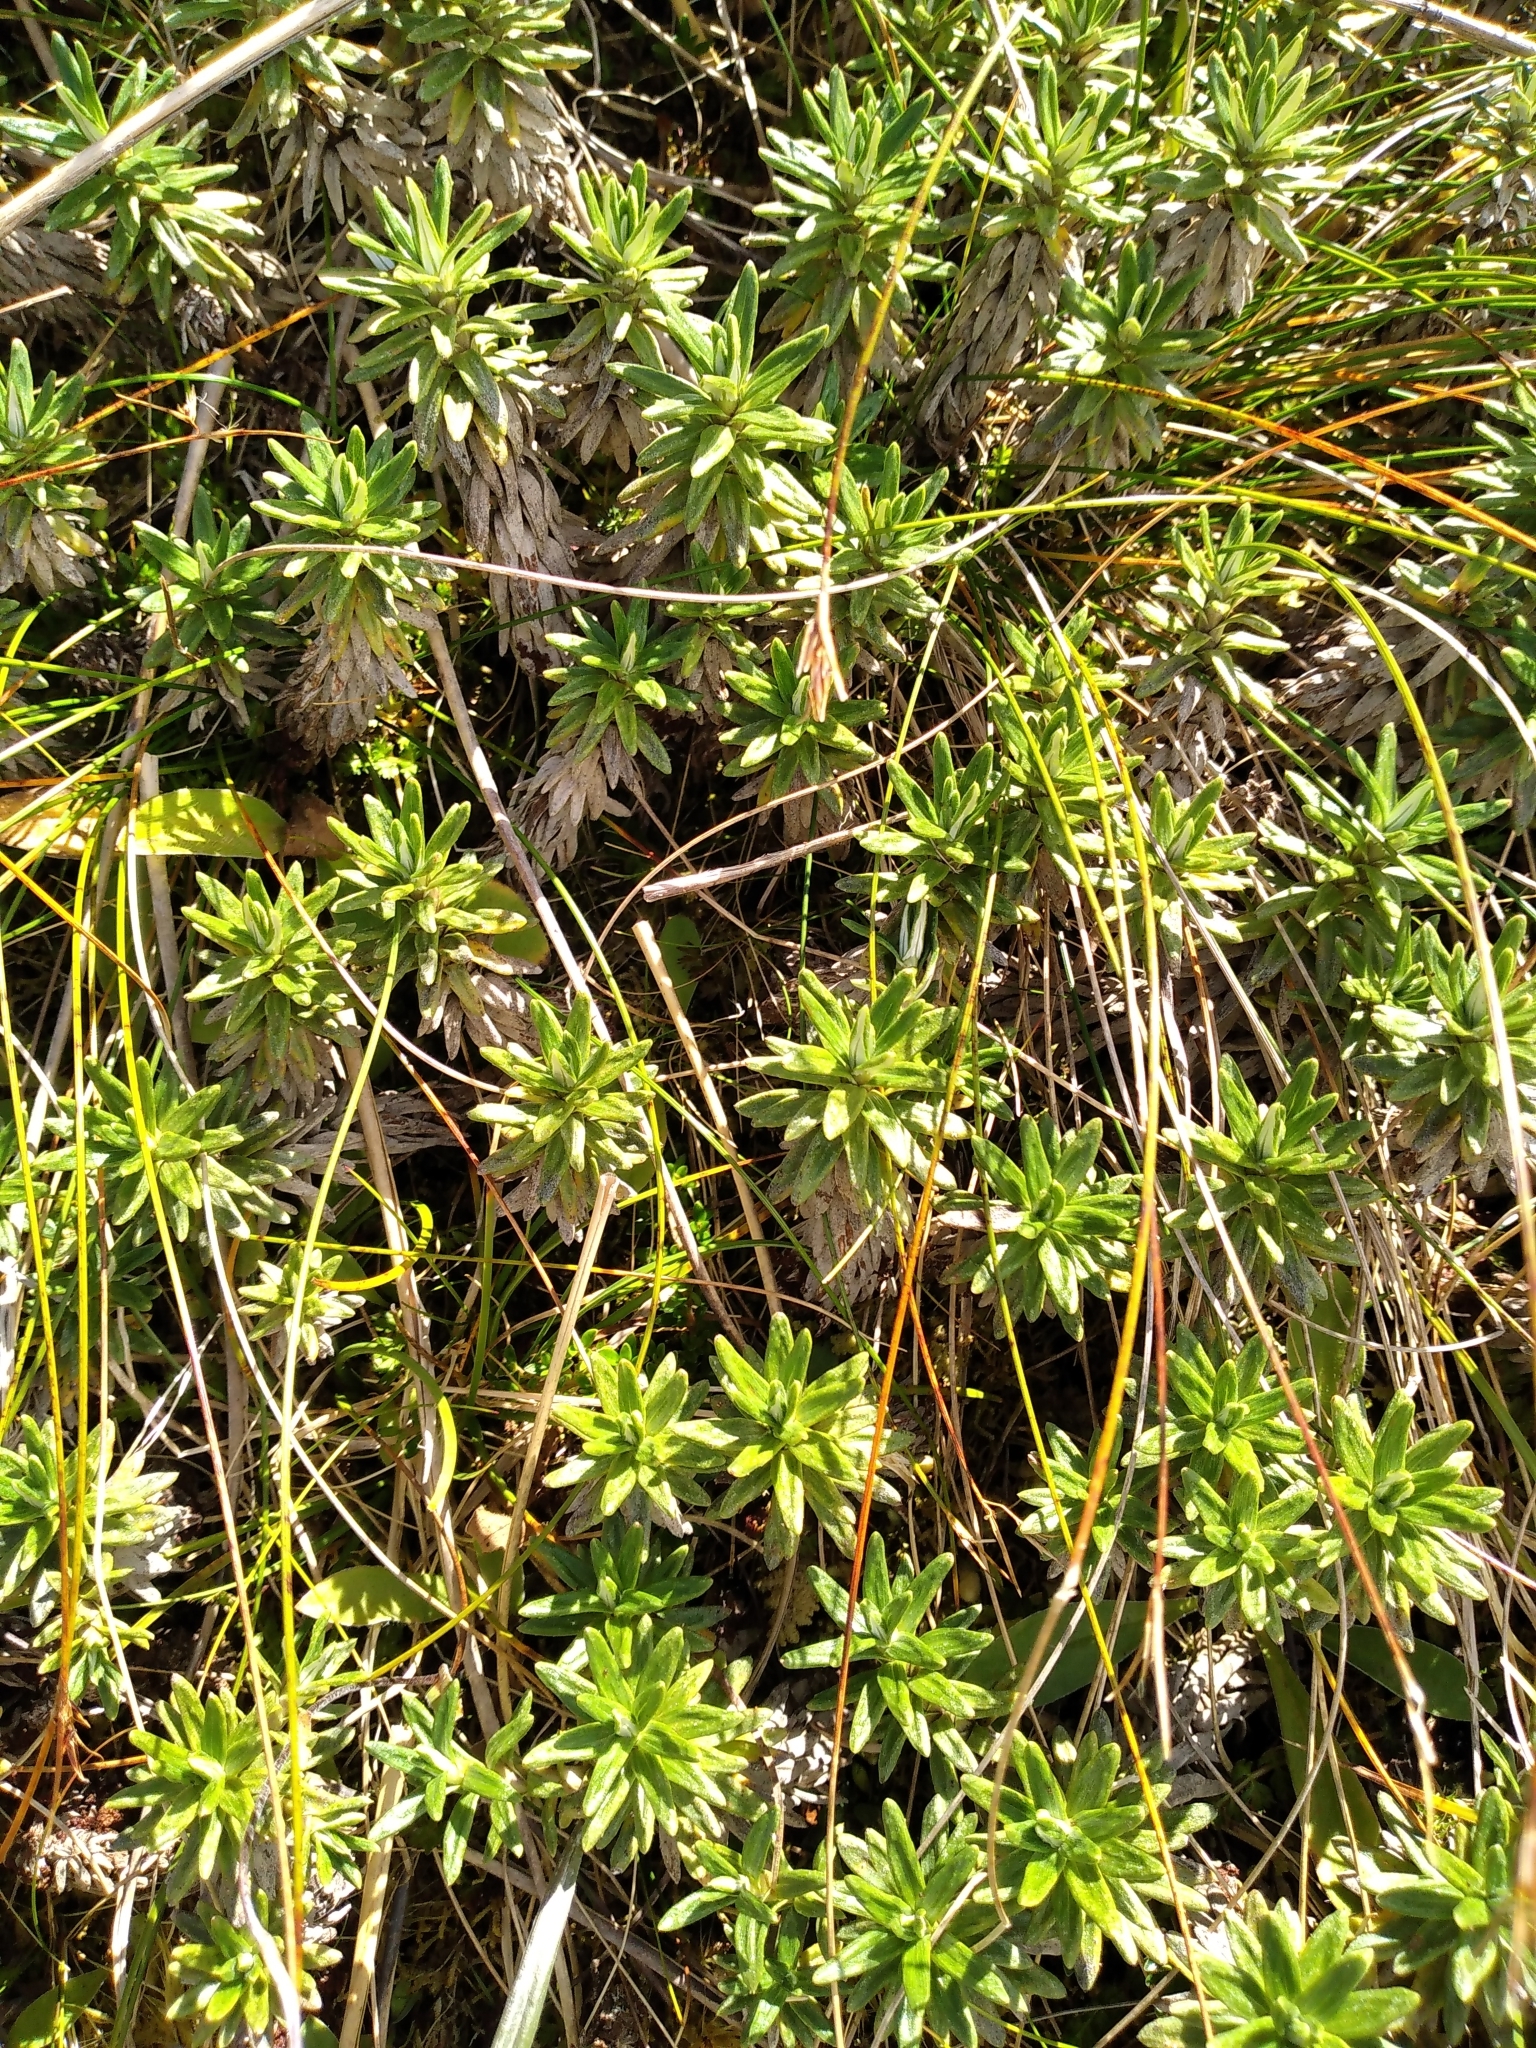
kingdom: Plantae
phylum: Tracheophyta
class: Magnoliopsida
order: Asterales
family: Asteraceae
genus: Celmisia
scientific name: Celmisia walkeri
